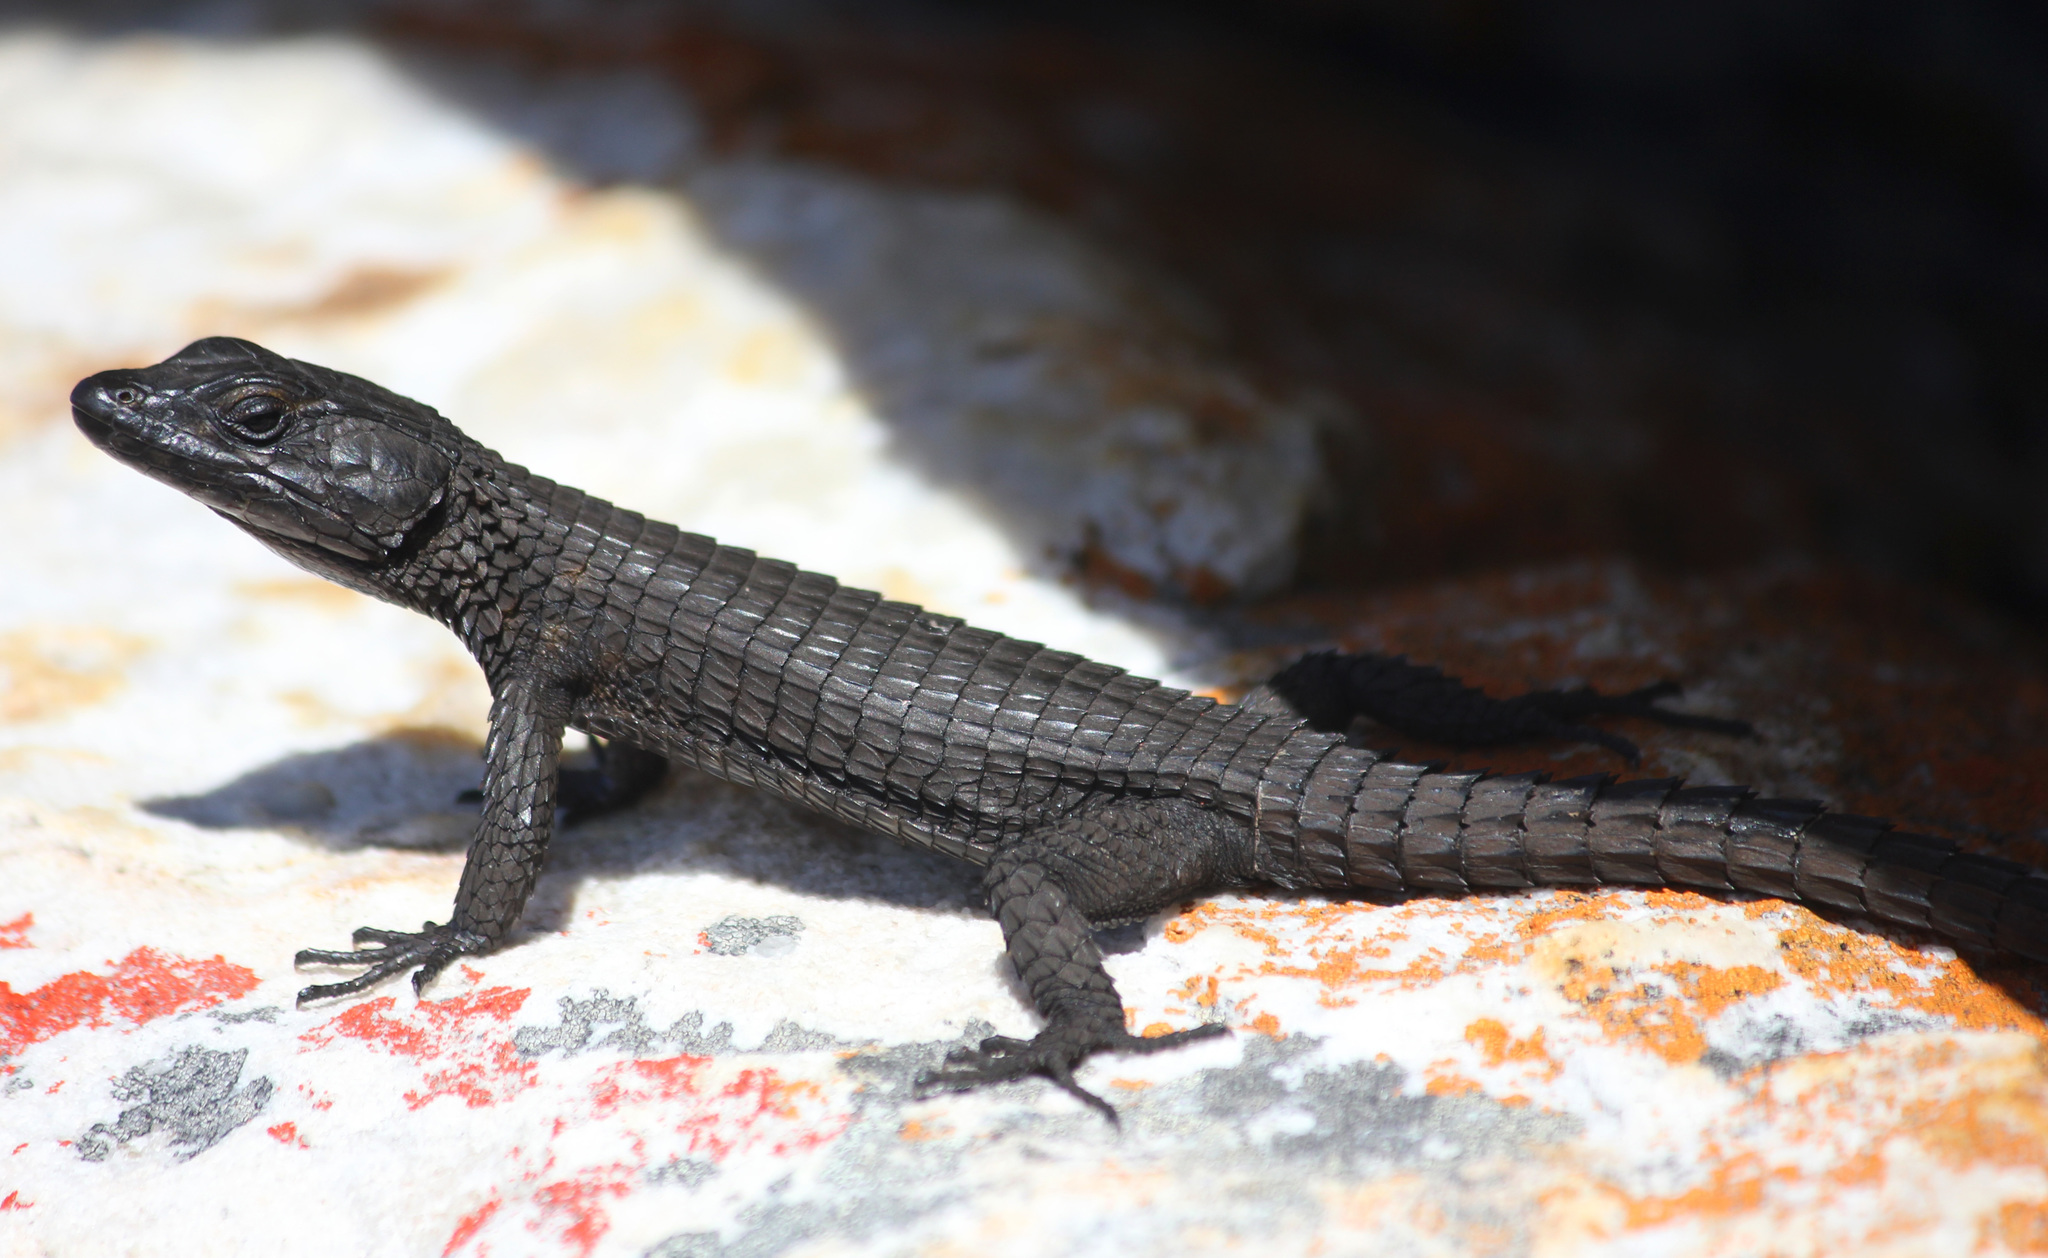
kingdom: Animalia
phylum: Chordata
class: Squamata
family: Cordylidae
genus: Cordylus
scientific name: Cordylus niger
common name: Black girdled lizard
